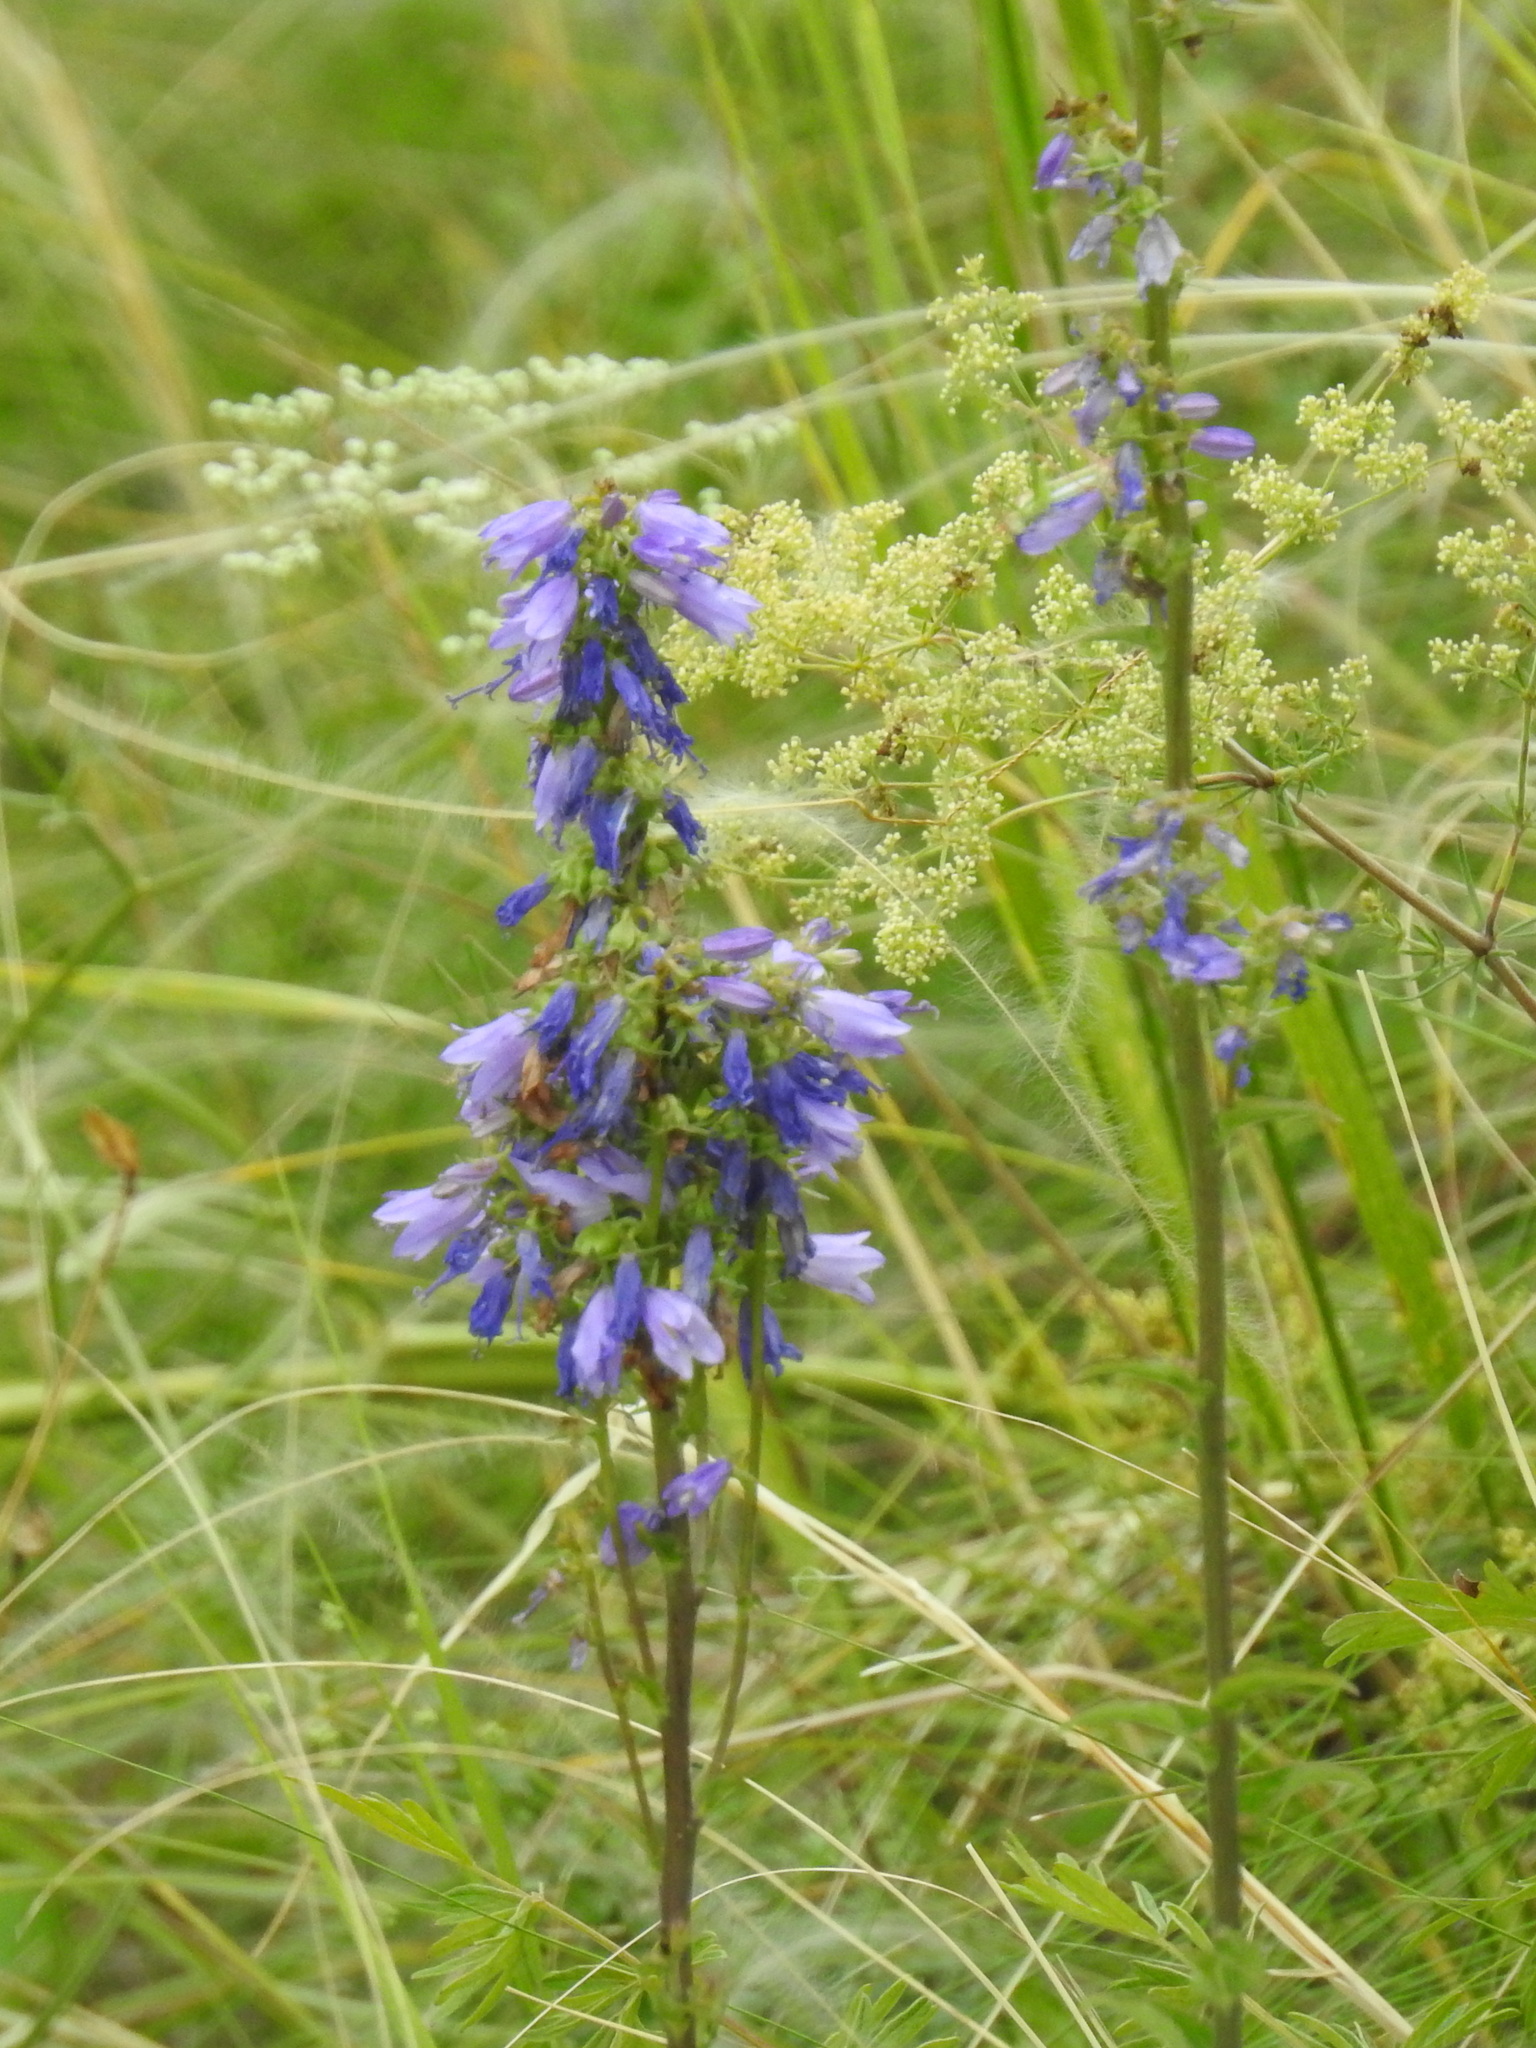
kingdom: Plantae
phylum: Tracheophyta
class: Magnoliopsida
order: Asterales
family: Campanulaceae
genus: Campanula
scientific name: Campanula bononiensis
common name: Pale bellflower
